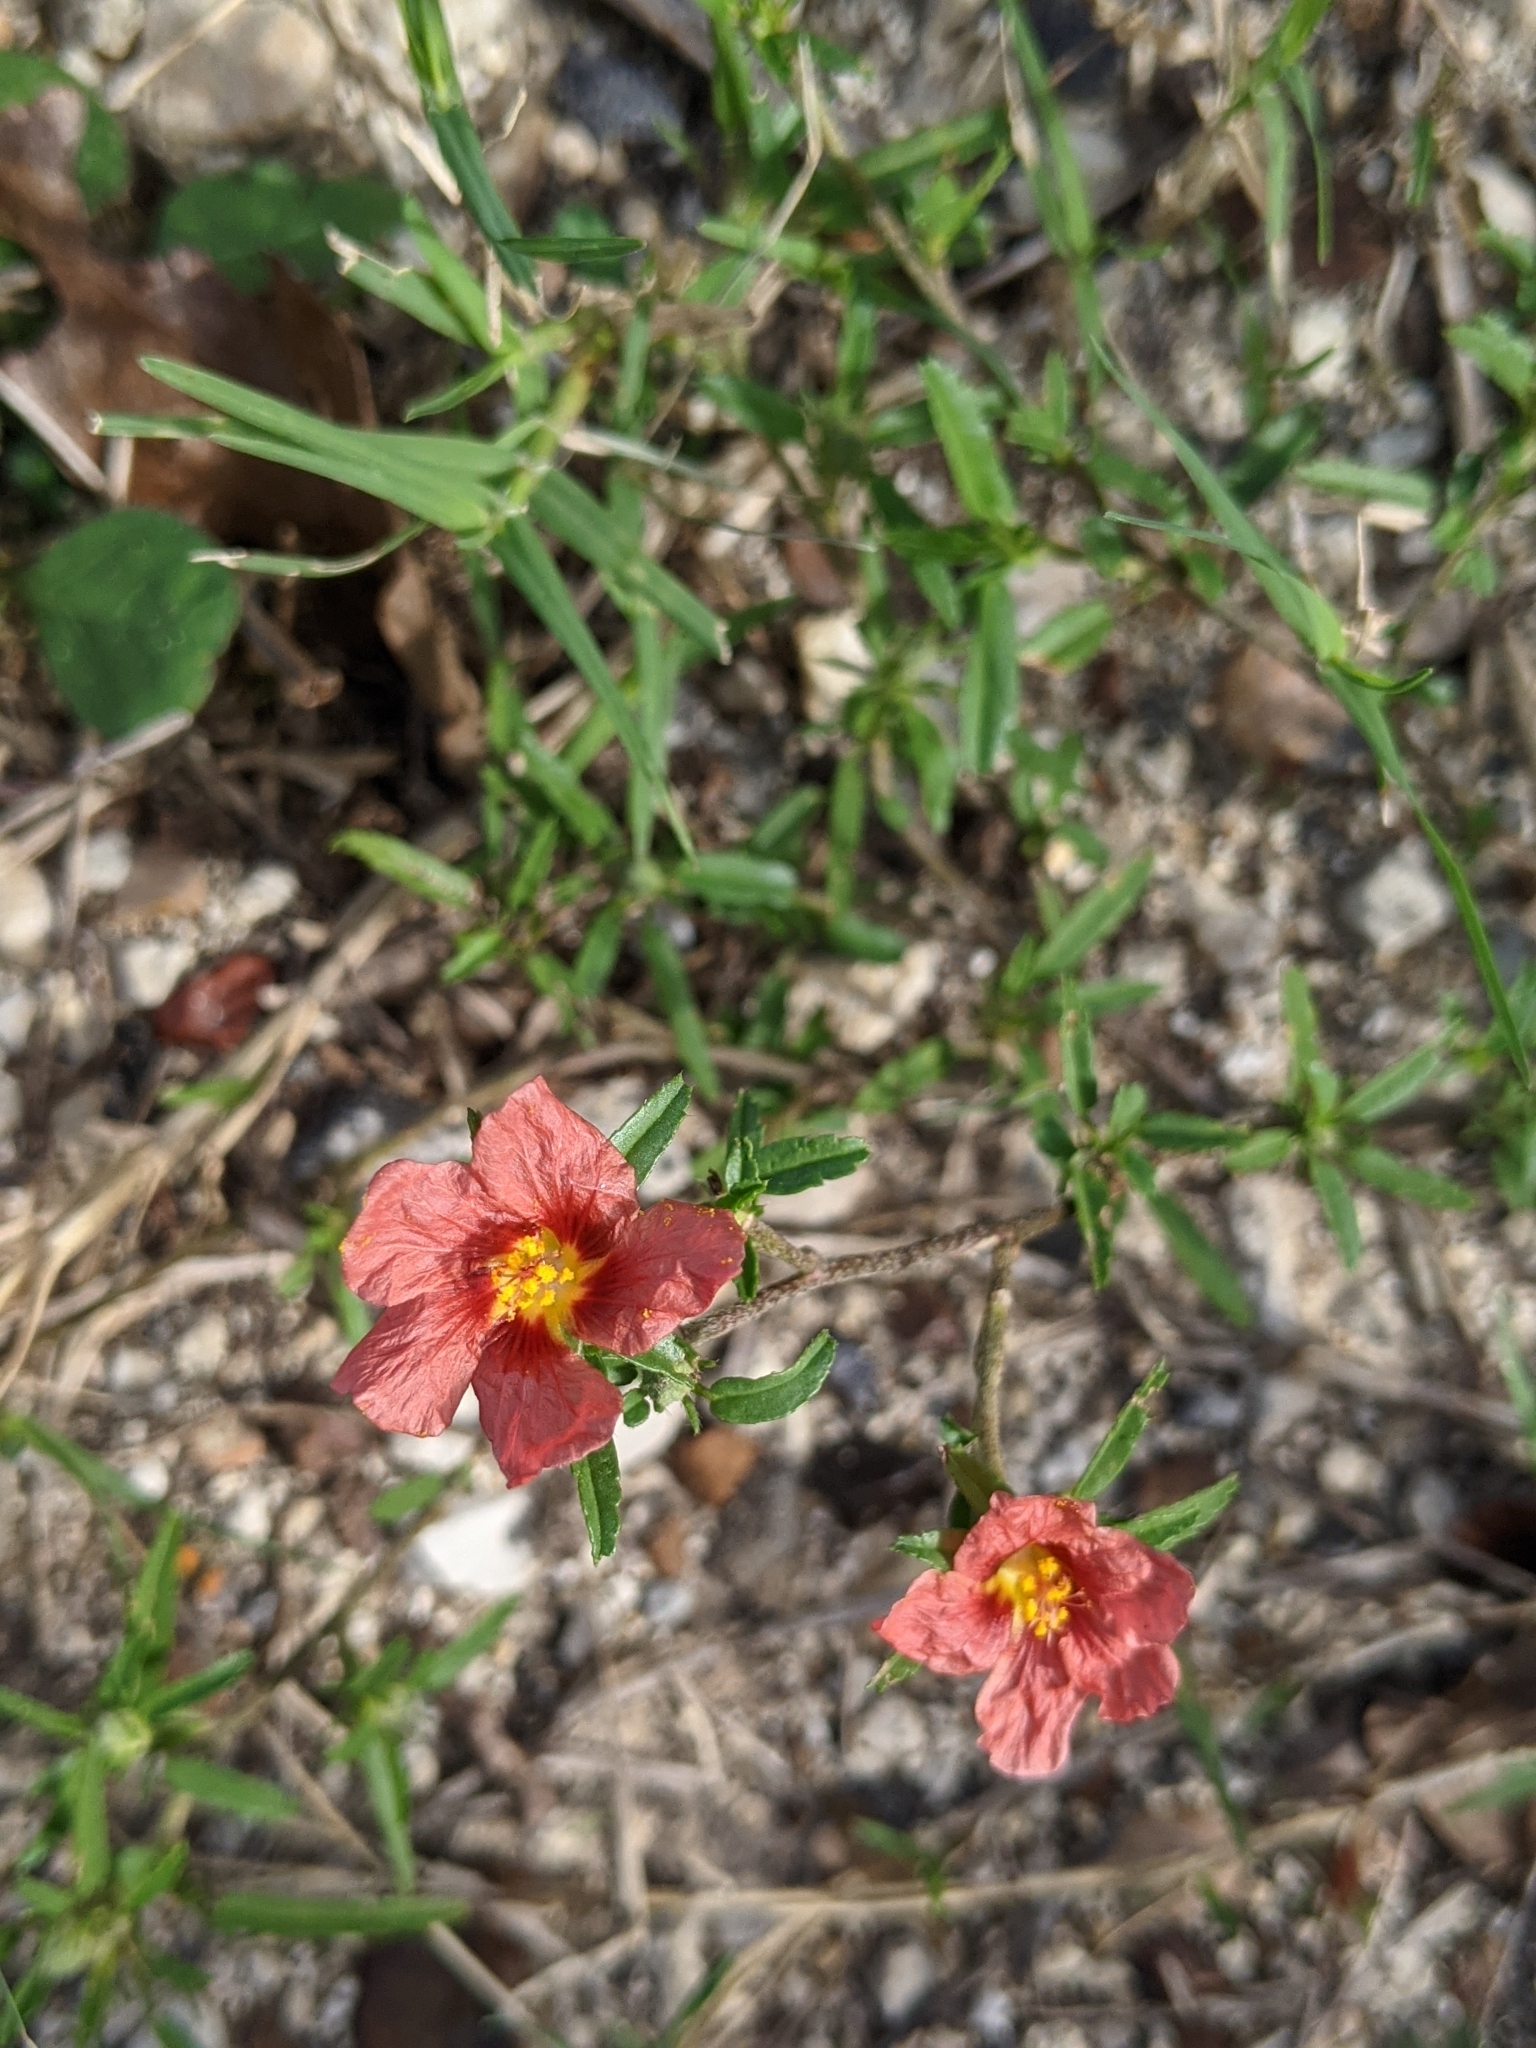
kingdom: Plantae
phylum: Tracheophyta
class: Magnoliopsida
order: Malvales
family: Malvaceae
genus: Sida
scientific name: Sida ciliaris
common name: Bracted fanpetals
